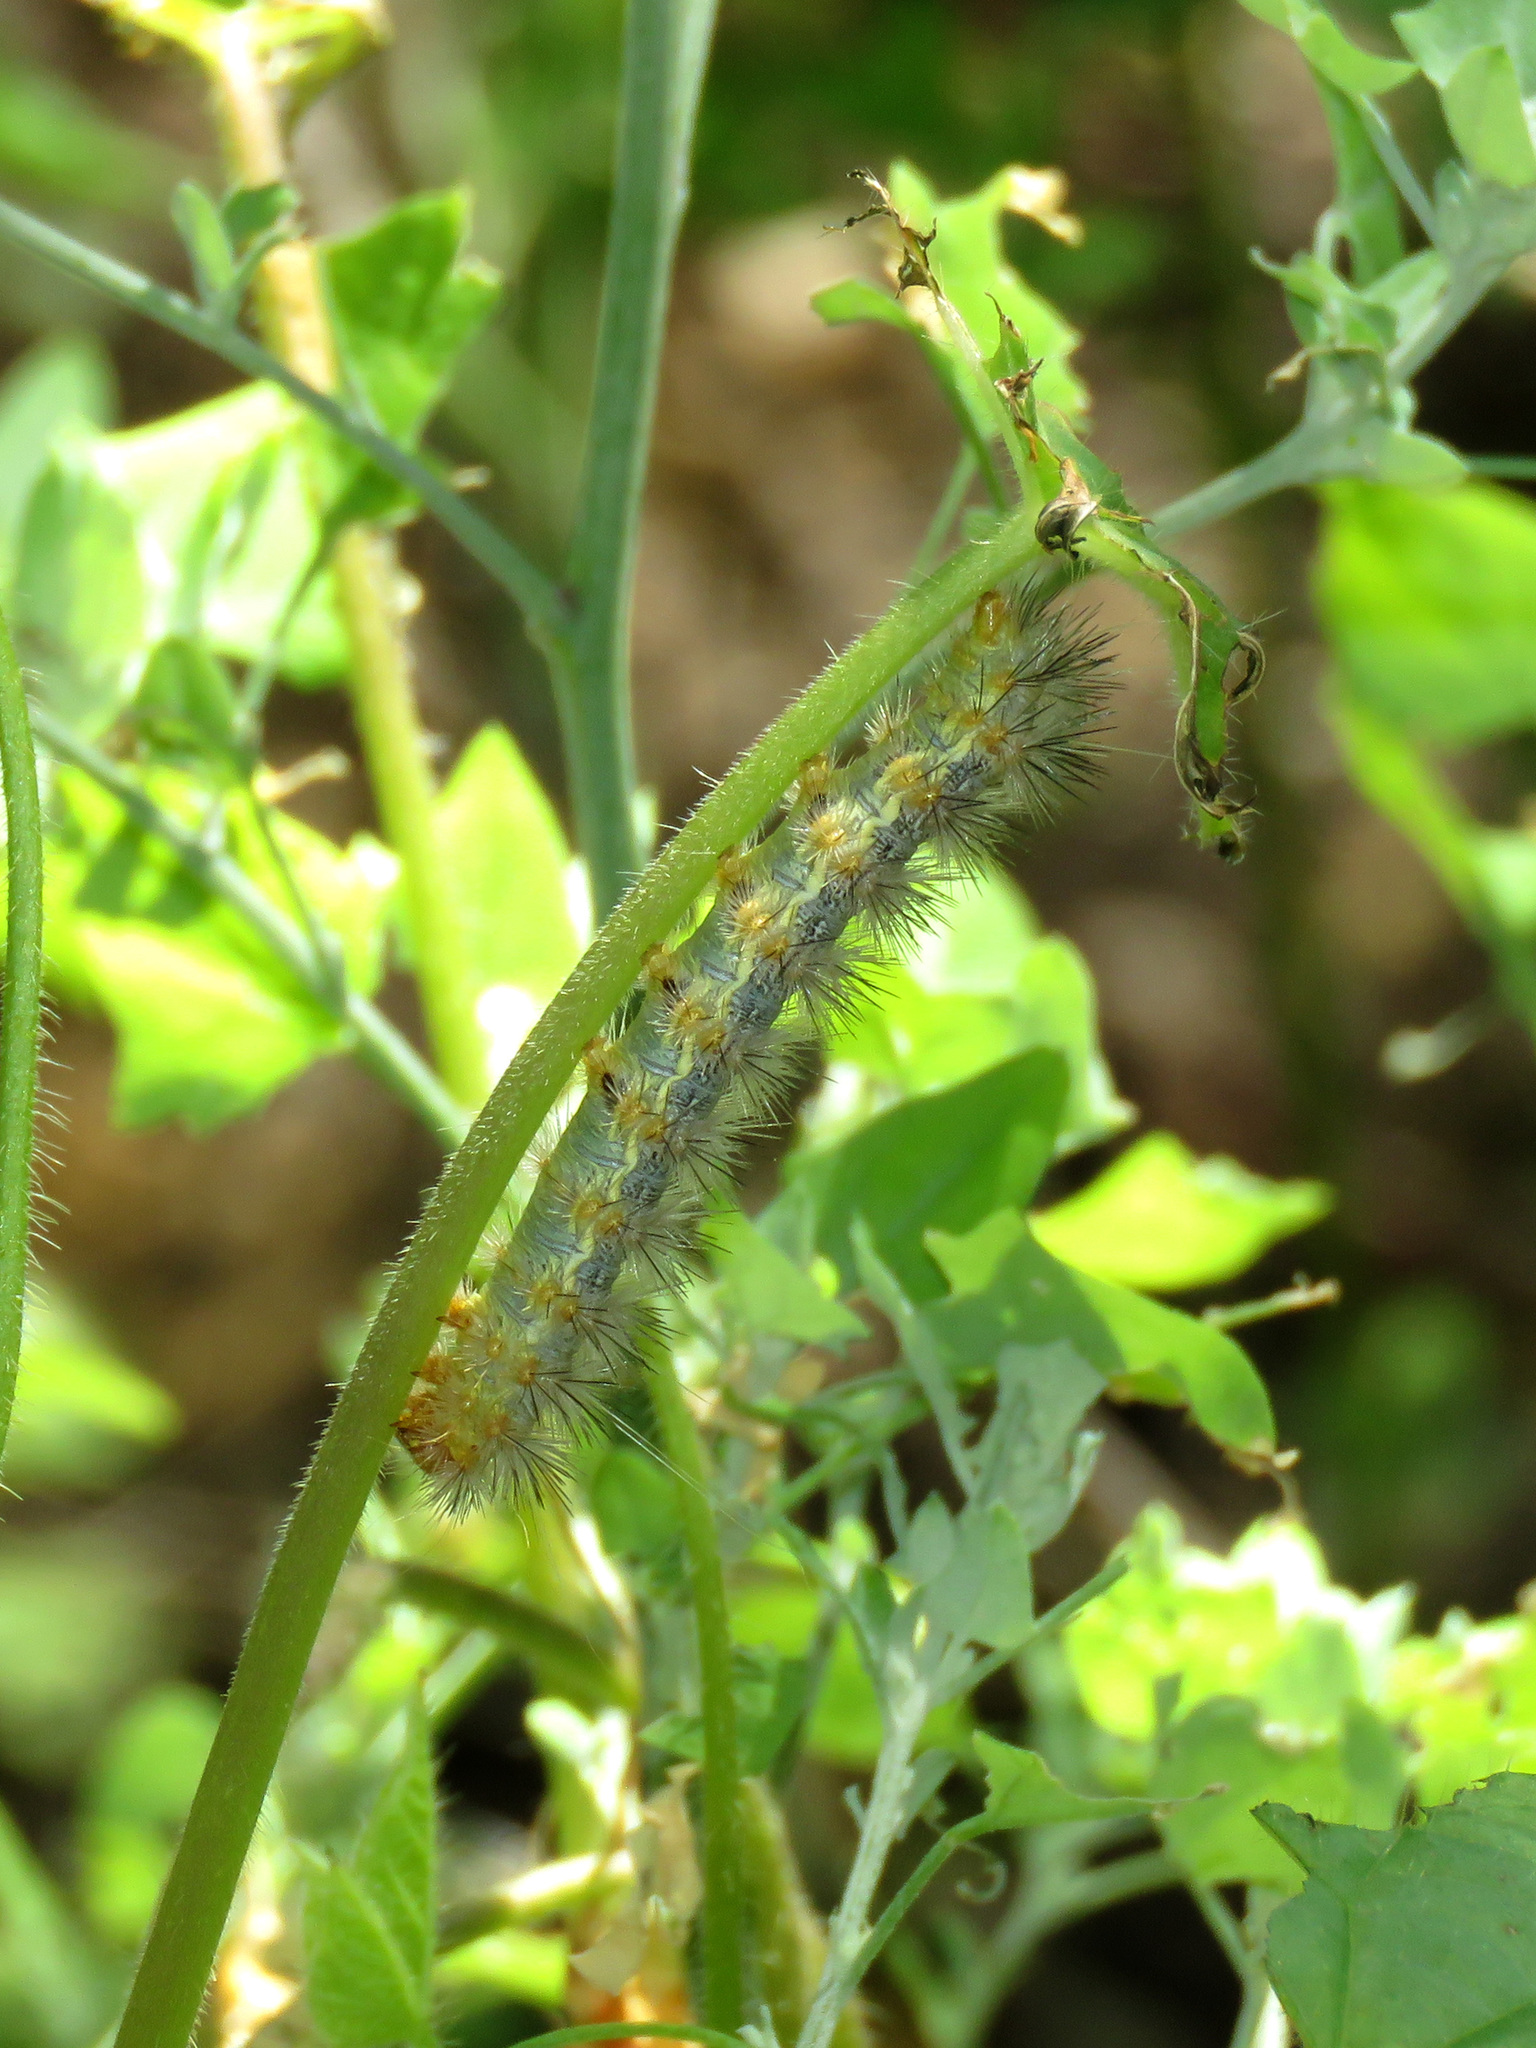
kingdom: Animalia
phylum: Arthropoda
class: Insecta
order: Lepidoptera
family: Erebidae
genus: Hypercompe
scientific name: Hypercompe suffusa
